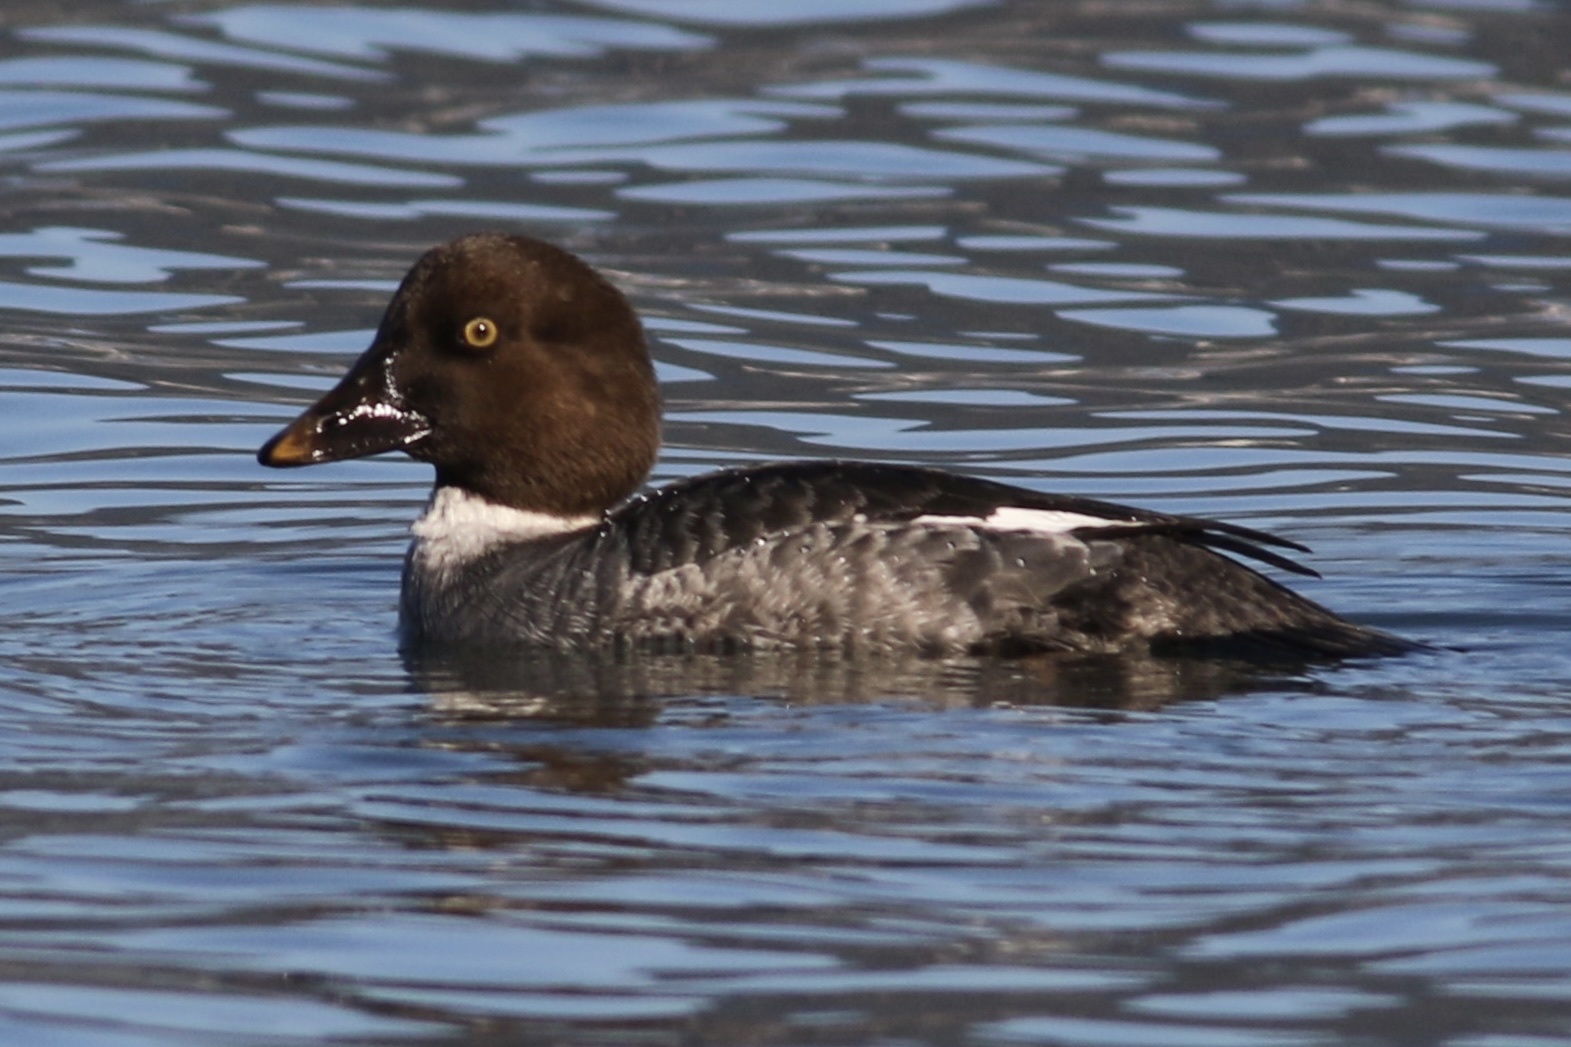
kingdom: Animalia
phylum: Chordata
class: Aves
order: Anseriformes
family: Anatidae
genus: Bucephala
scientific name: Bucephala clangula
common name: Common goldeneye
